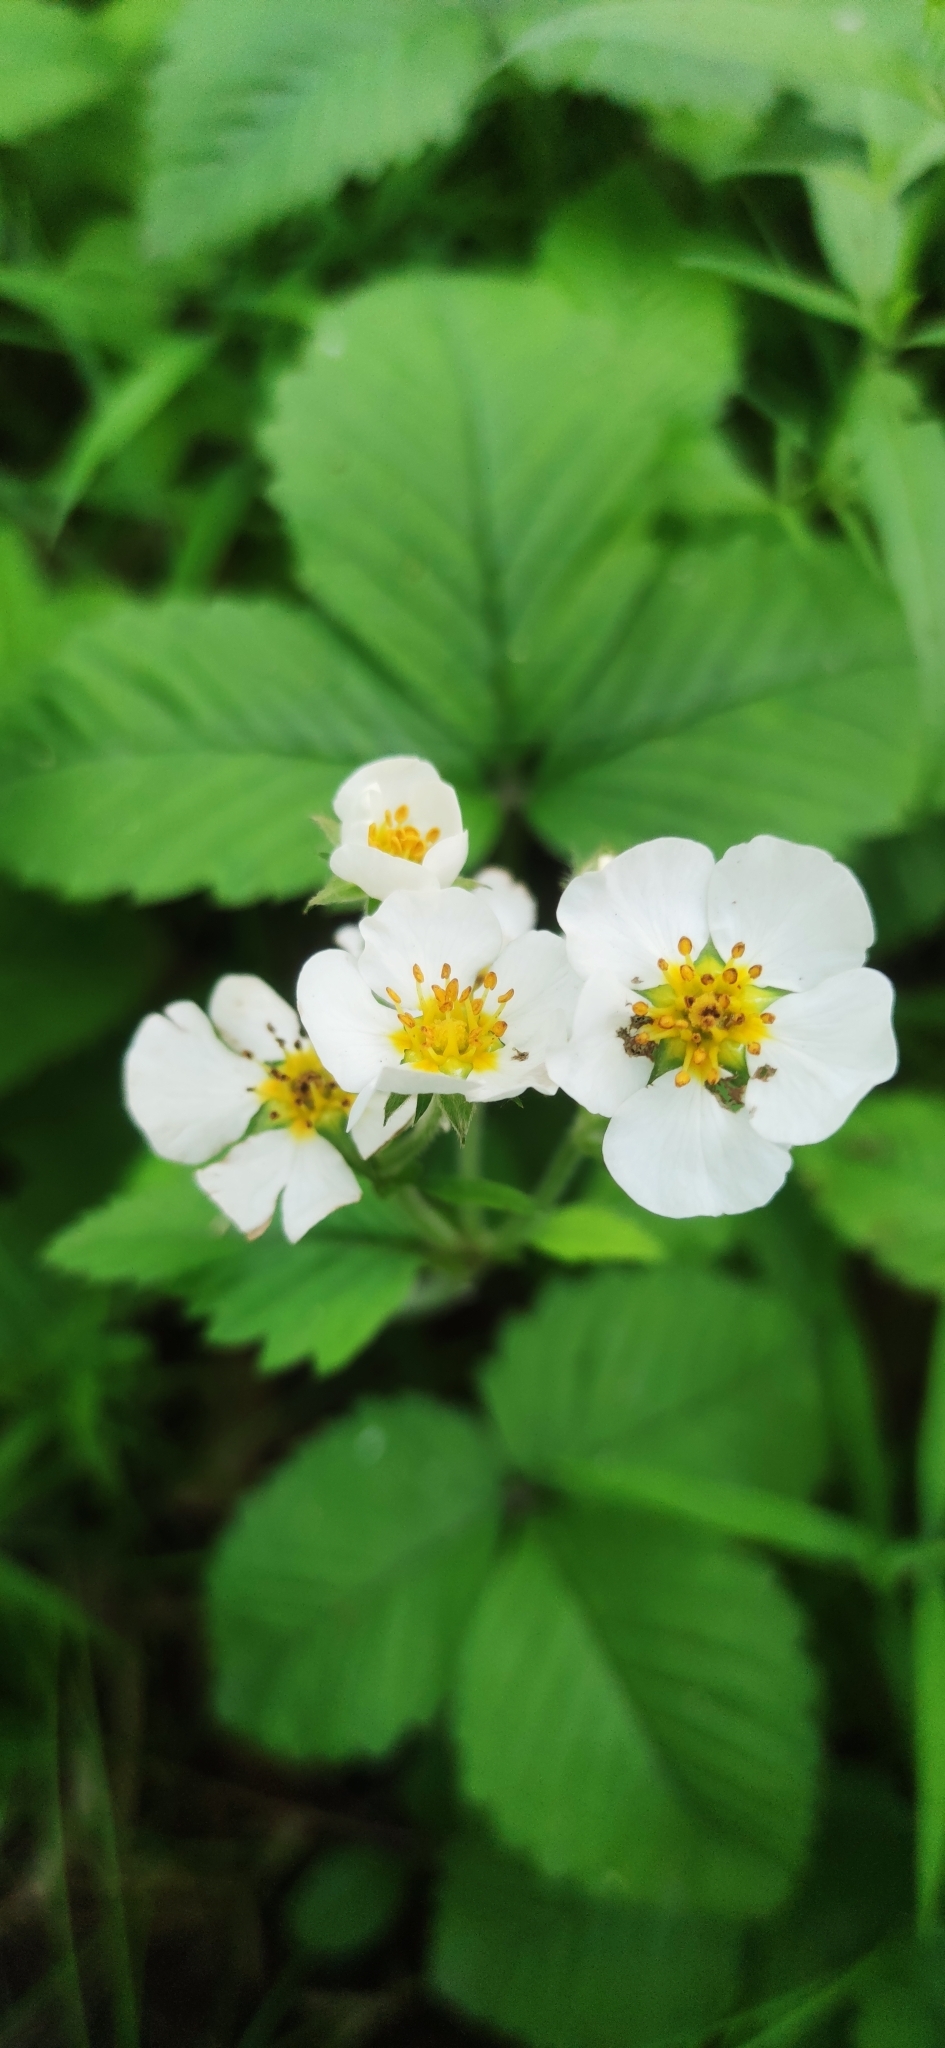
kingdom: Plantae
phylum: Tracheophyta
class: Magnoliopsida
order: Rosales
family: Rosaceae
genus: Fragaria
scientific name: Fragaria moschata
